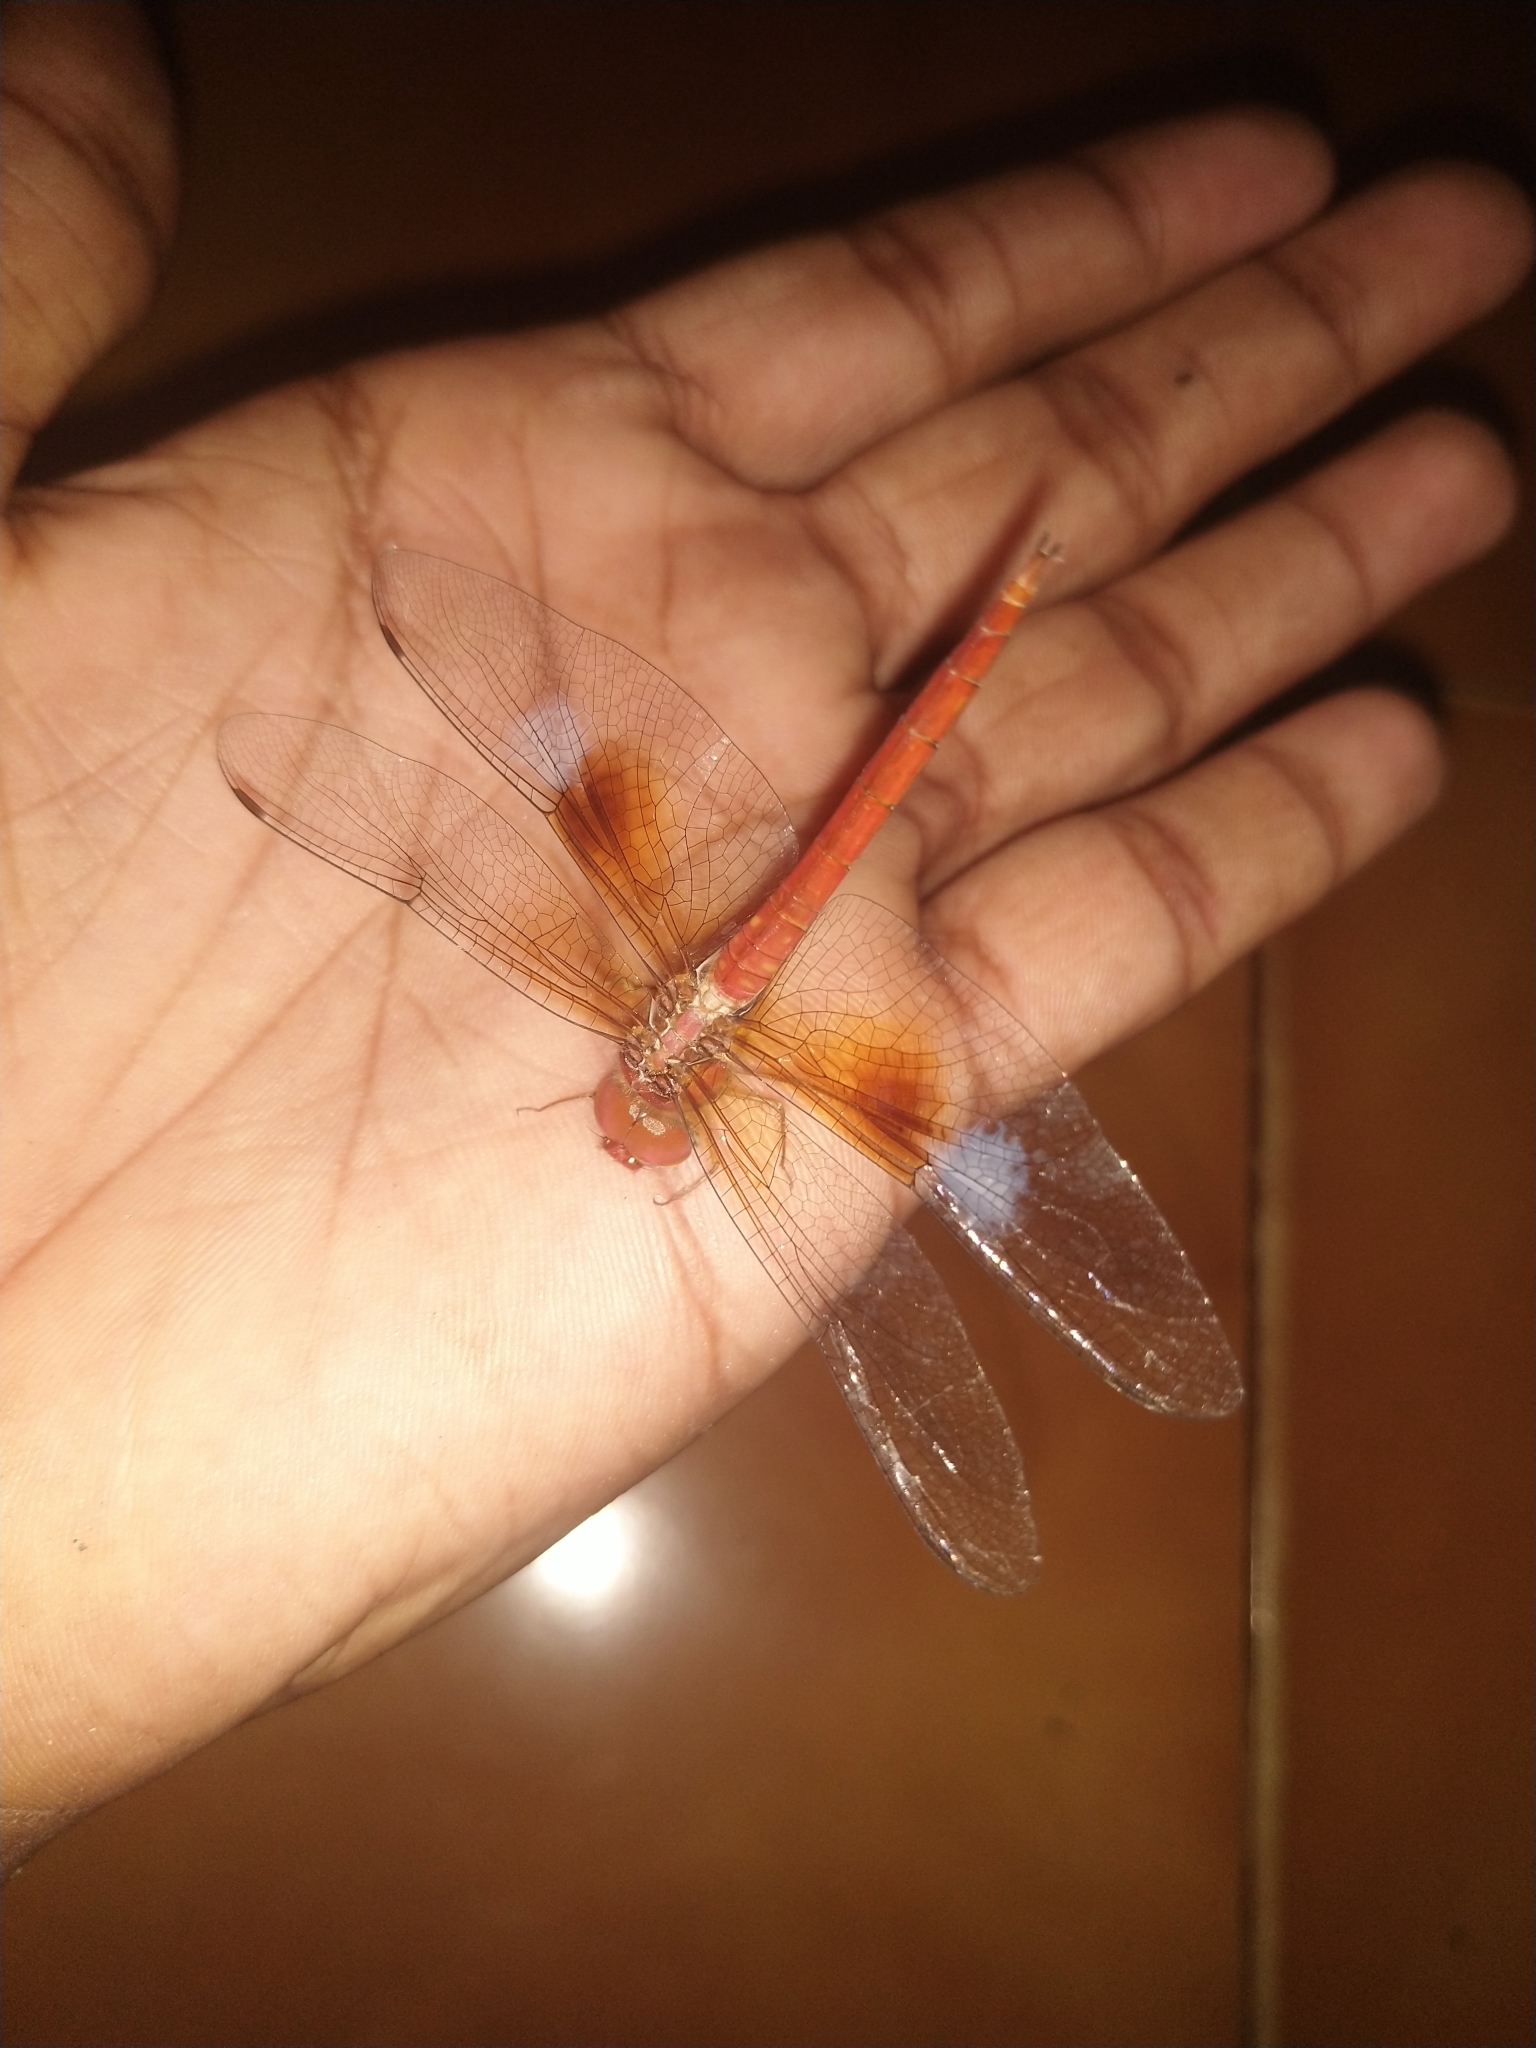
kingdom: Animalia
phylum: Arthropoda
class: Insecta
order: Odonata
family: Libellulidae
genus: Tholymis
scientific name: Tholymis tillarga
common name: Coral-tailed cloud wing
